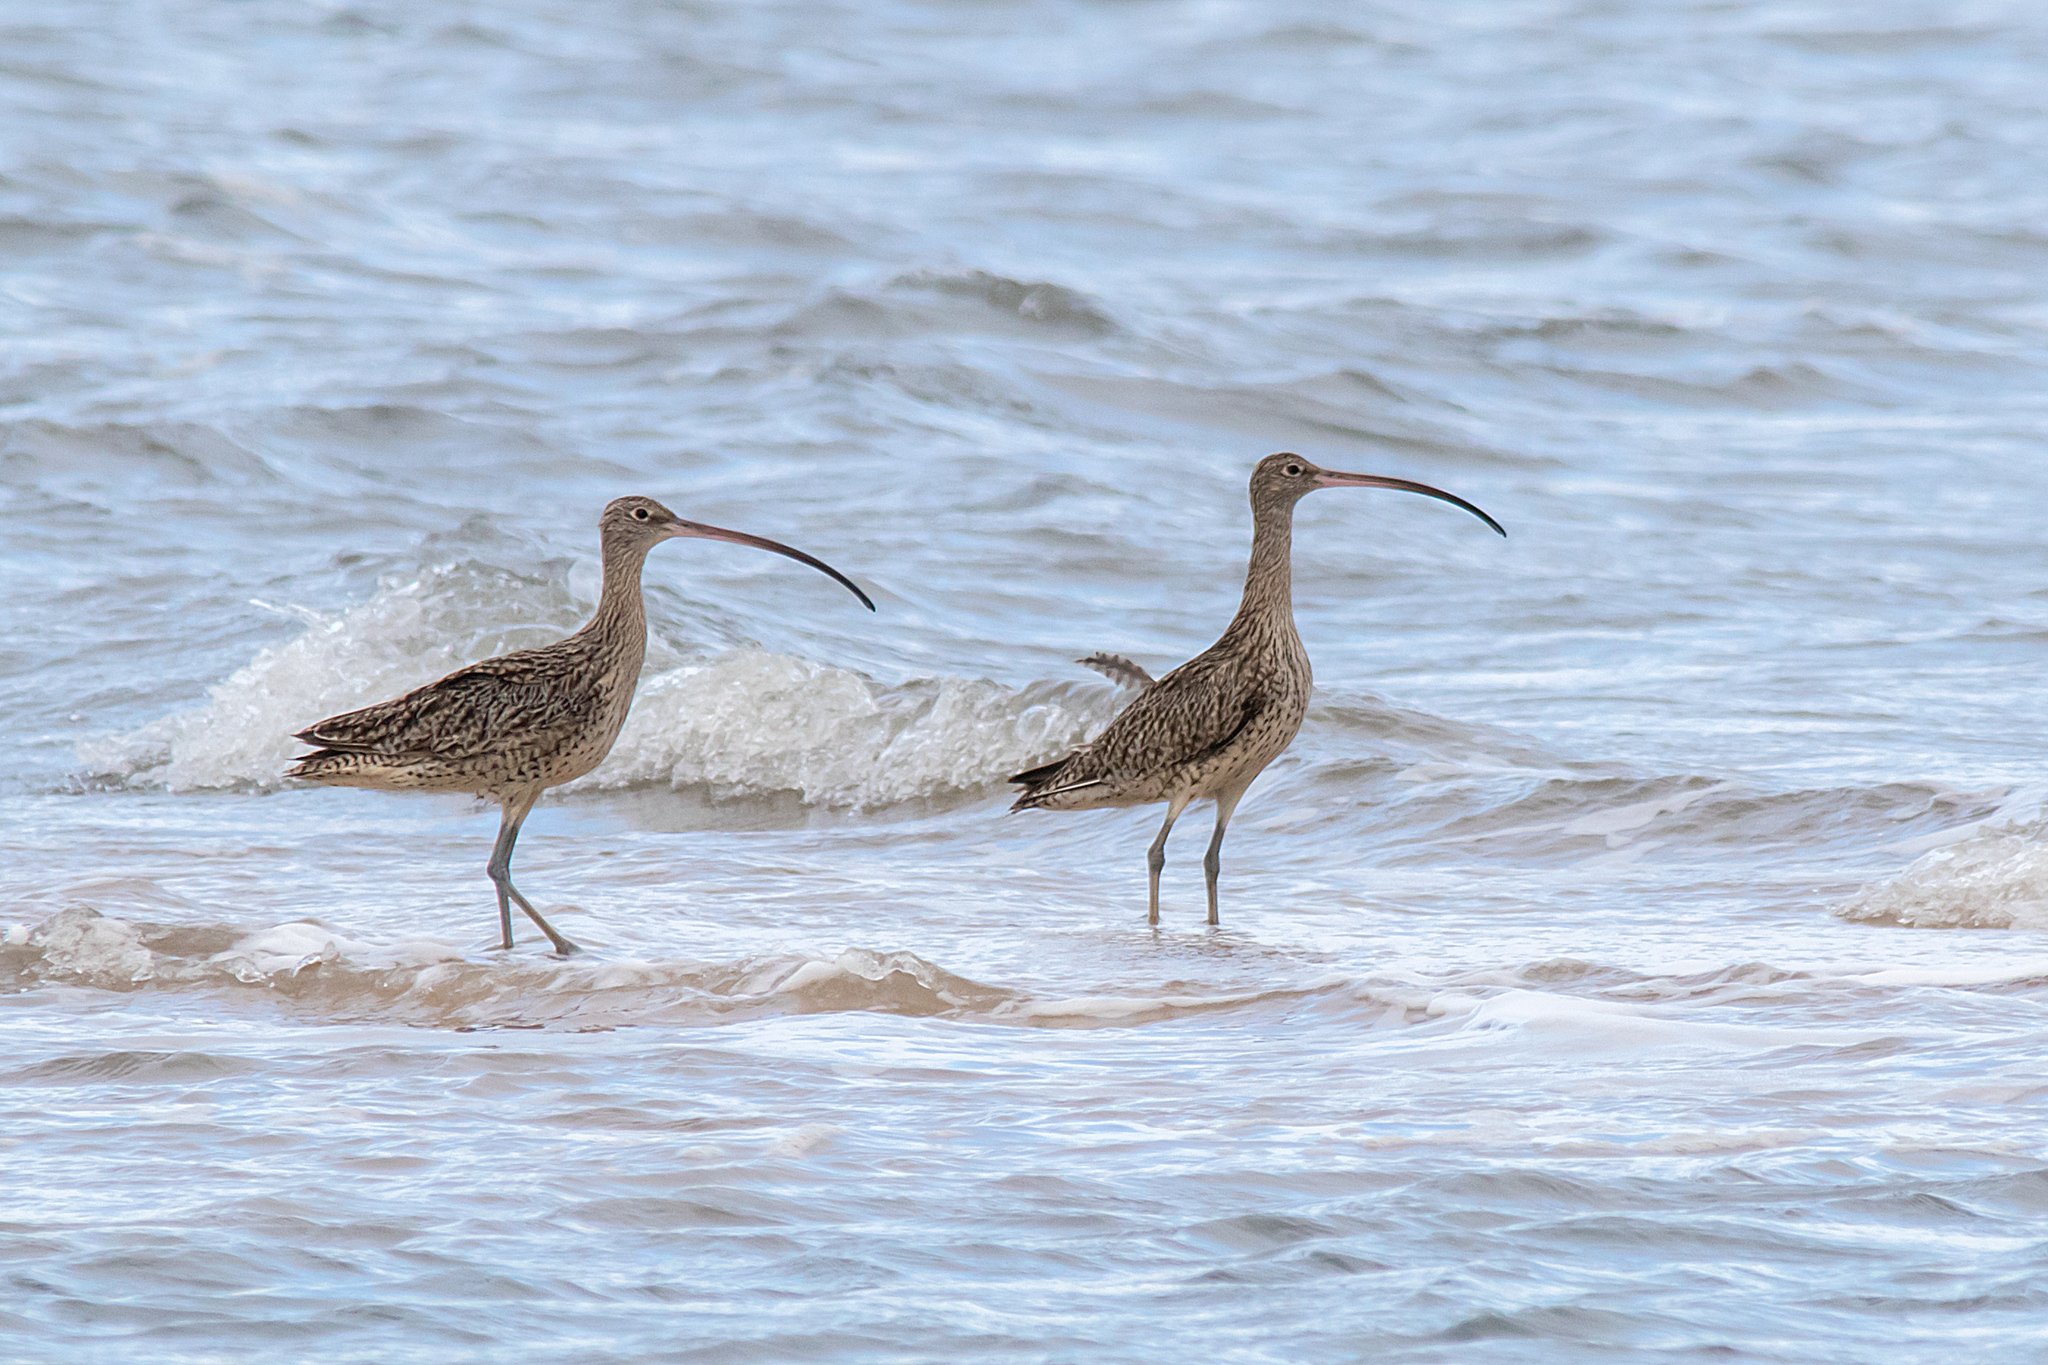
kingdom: Animalia
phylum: Chordata
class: Aves
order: Charadriiformes
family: Scolopacidae
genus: Numenius
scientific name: Numenius madagascariensis
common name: Far eastern curlew
